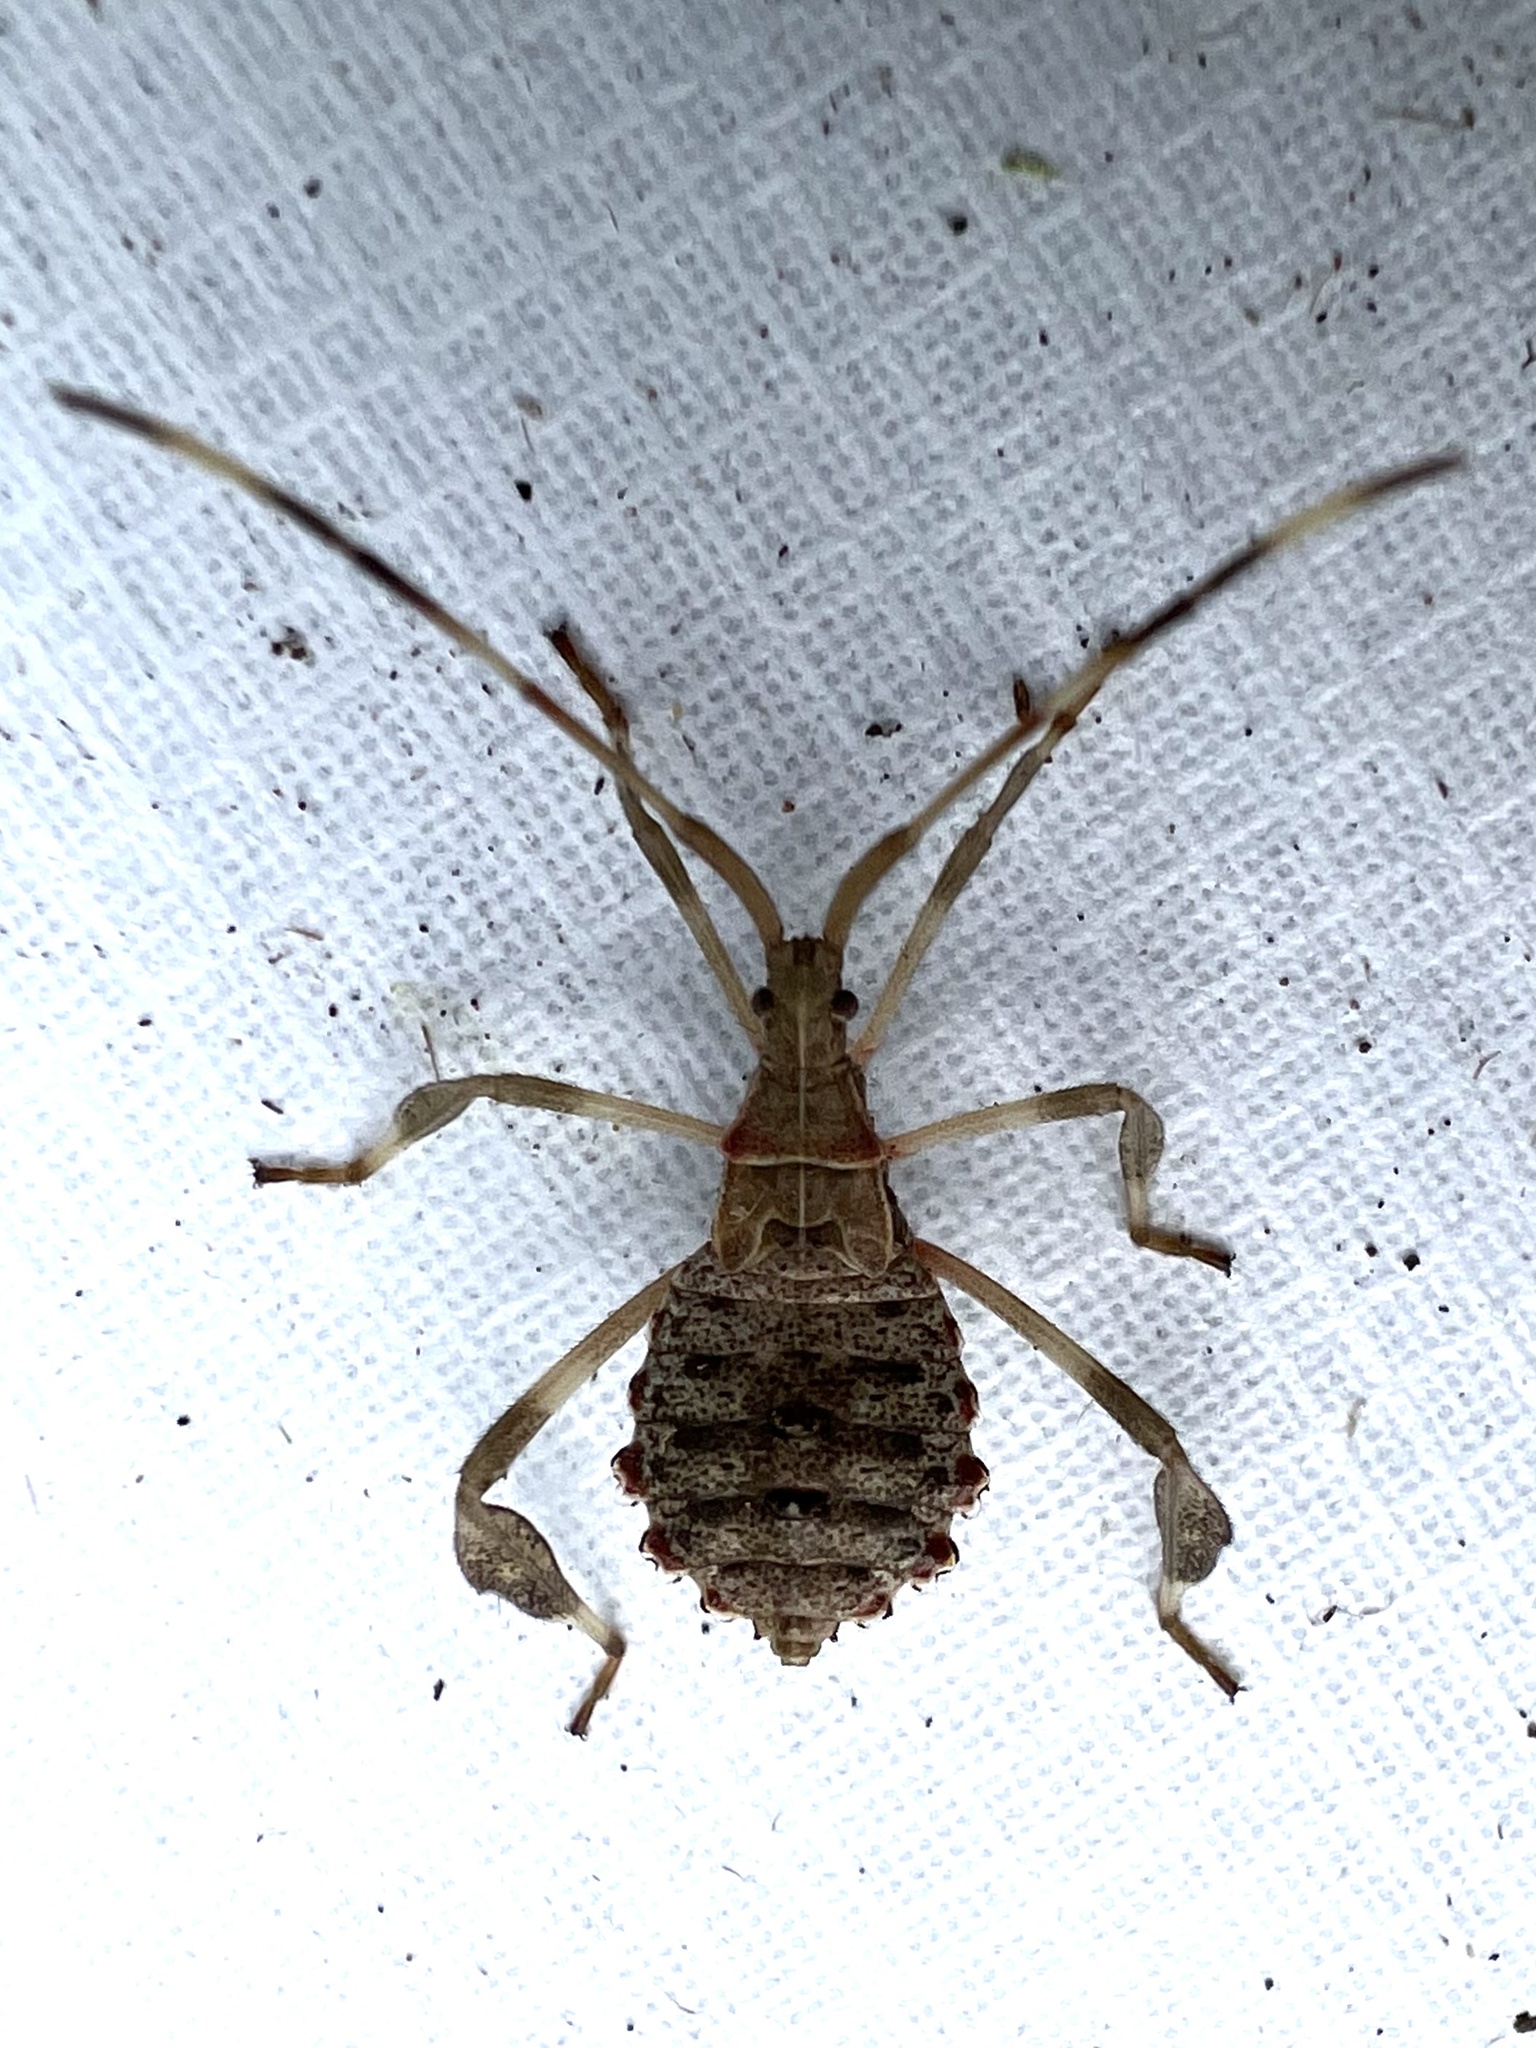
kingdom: Animalia
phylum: Arthropoda
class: Insecta
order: Hemiptera
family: Coreidae
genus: Acanthocephala
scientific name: Acanthocephala terminalis
